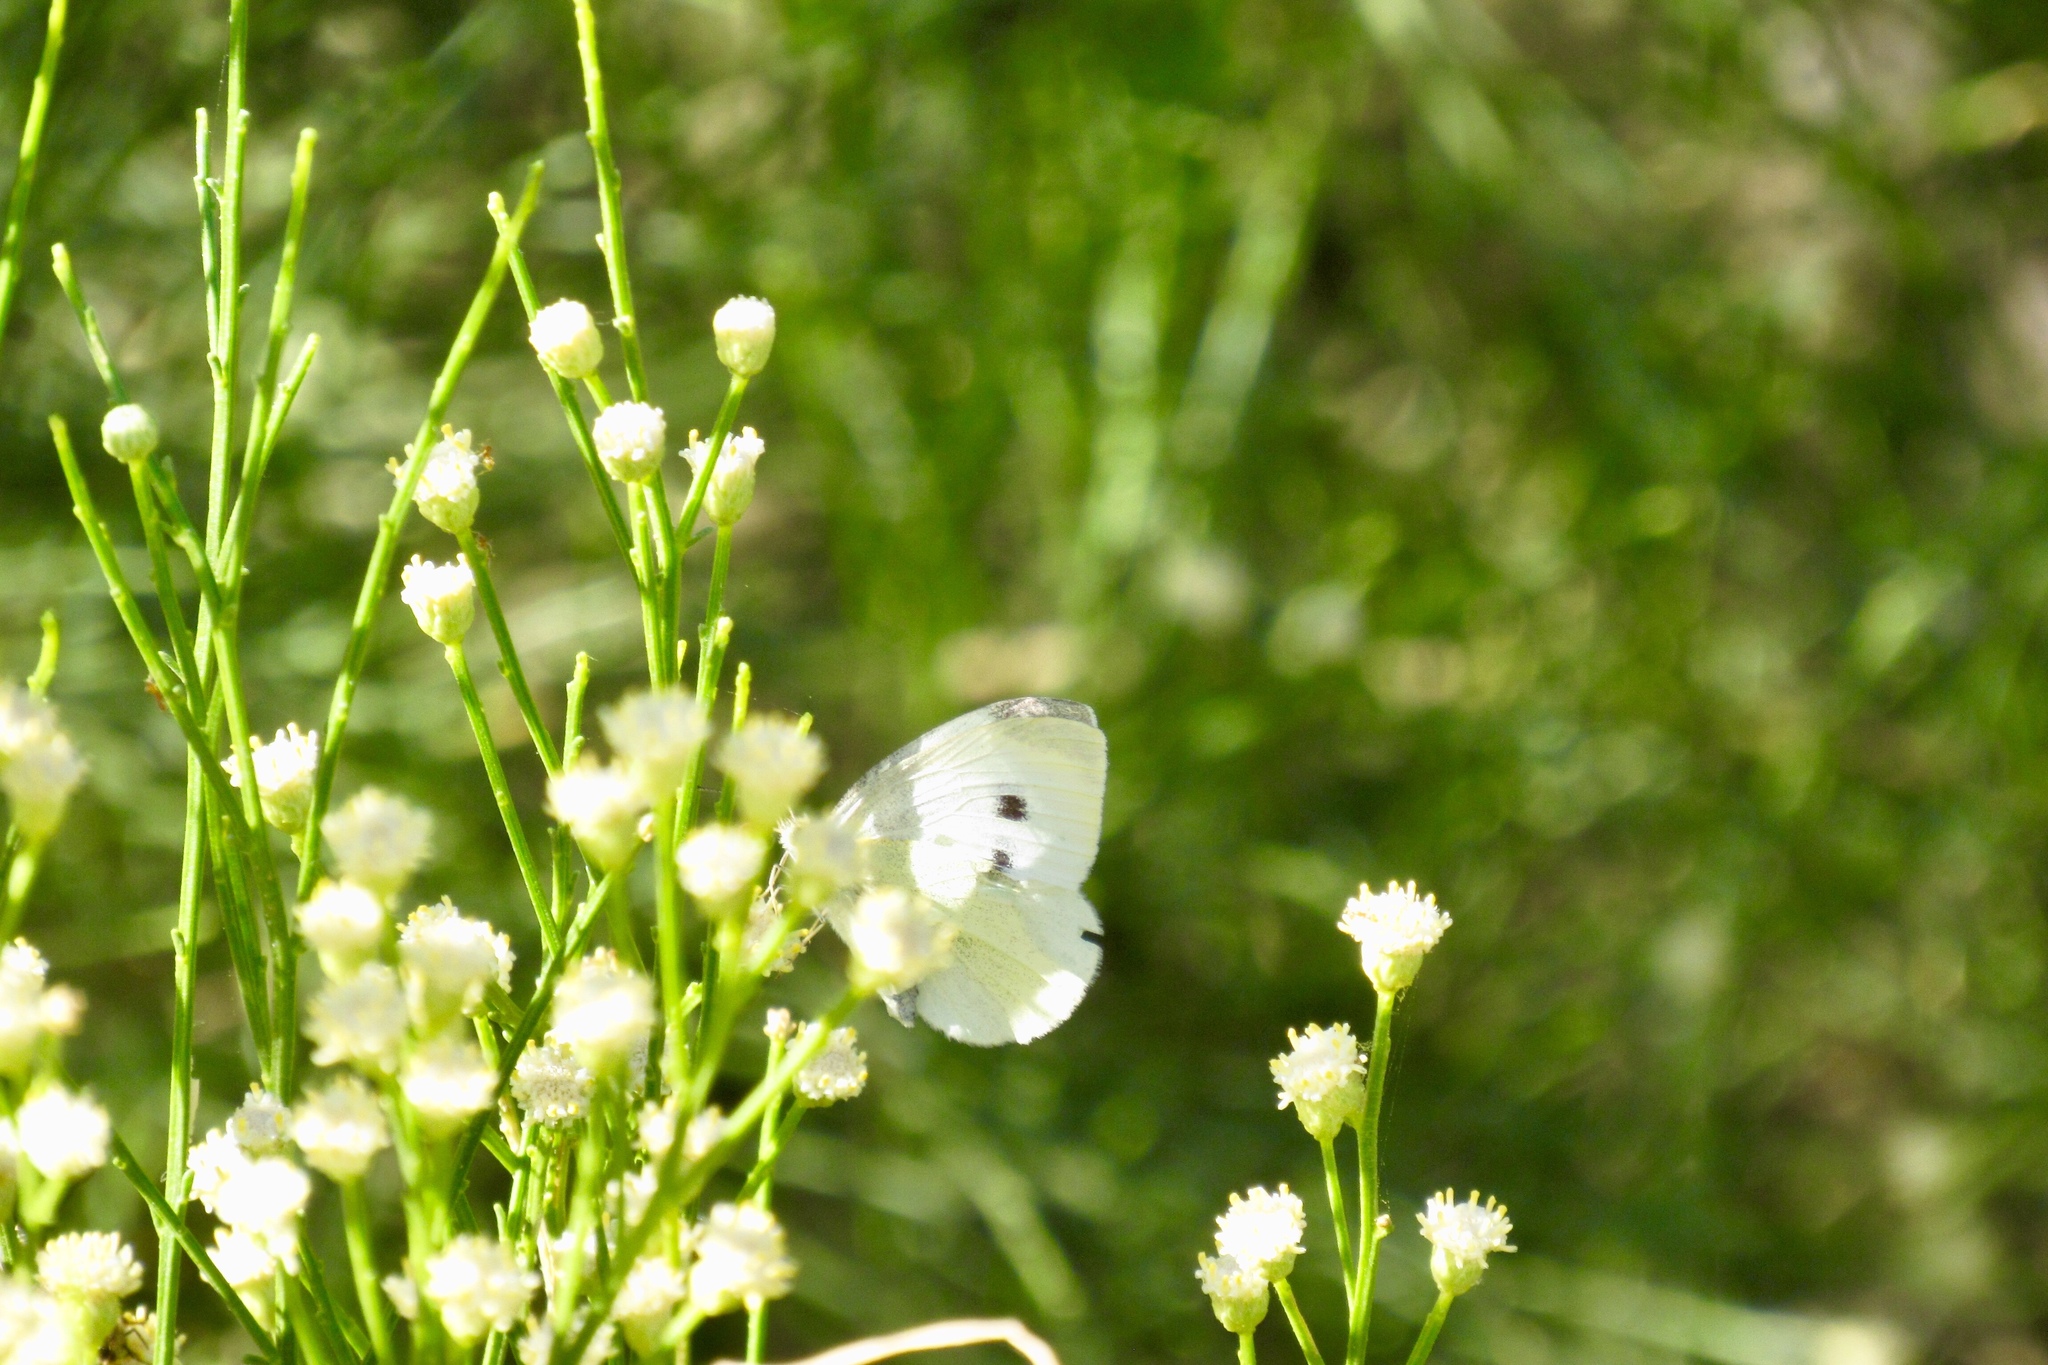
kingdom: Animalia
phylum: Arthropoda
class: Insecta
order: Lepidoptera
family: Pieridae
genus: Pieris
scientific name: Pieris rapae
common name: Small white
